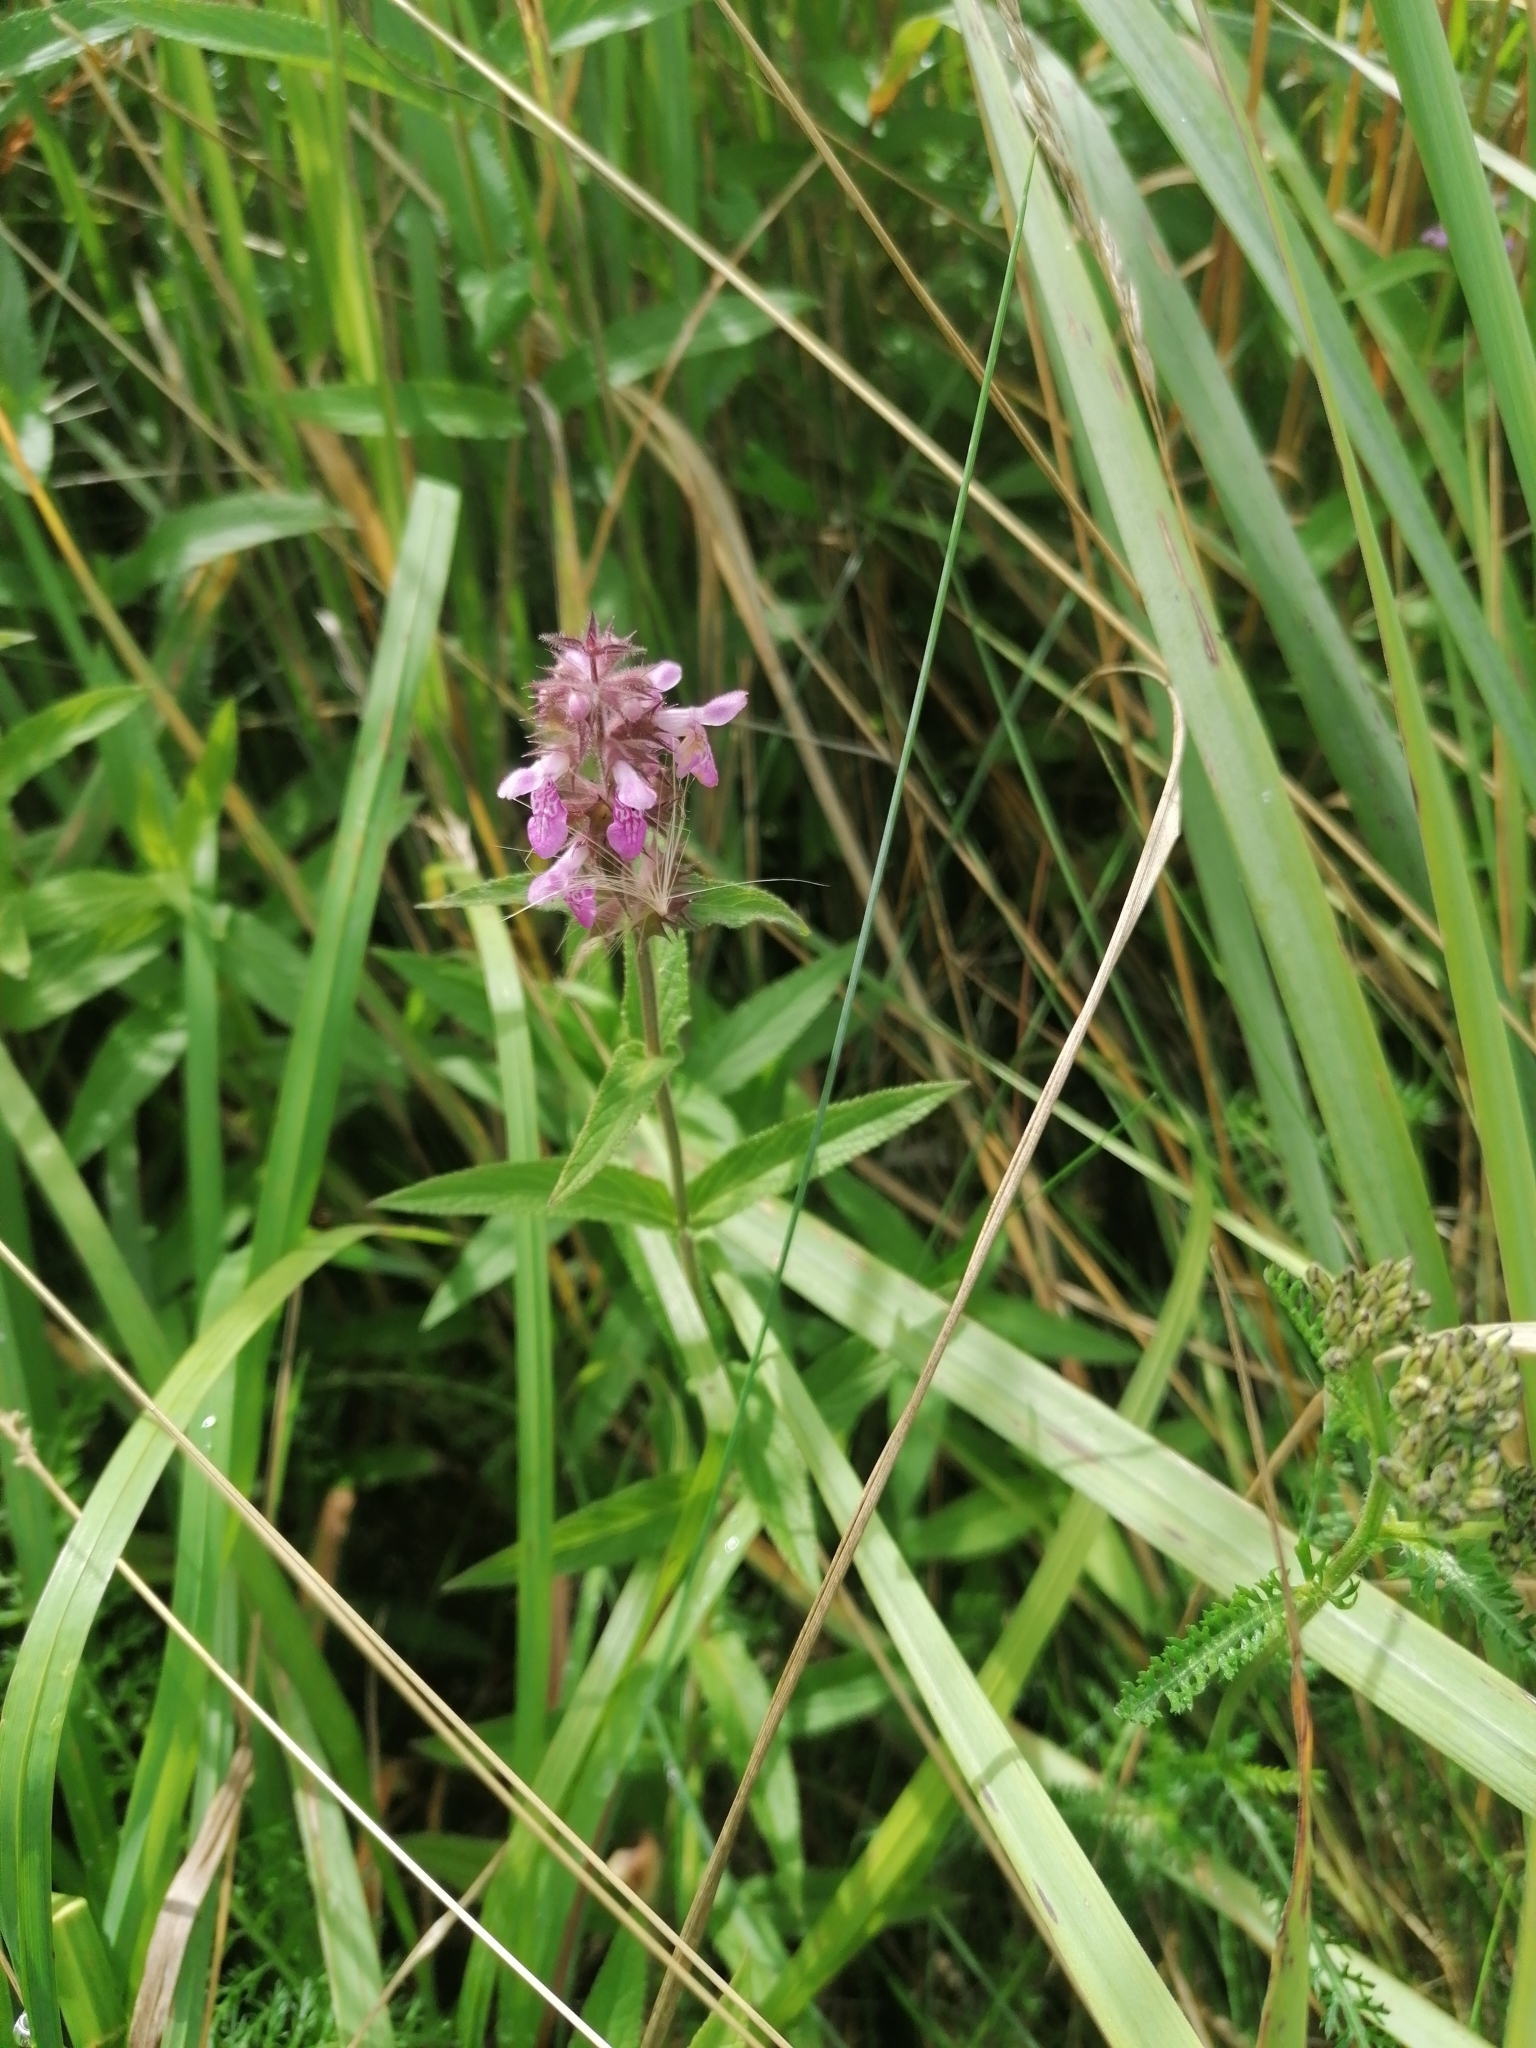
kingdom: Plantae
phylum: Tracheophyta
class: Magnoliopsida
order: Lamiales
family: Lamiaceae
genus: Stachys
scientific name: Stachys palustris
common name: Marsh woundwort
